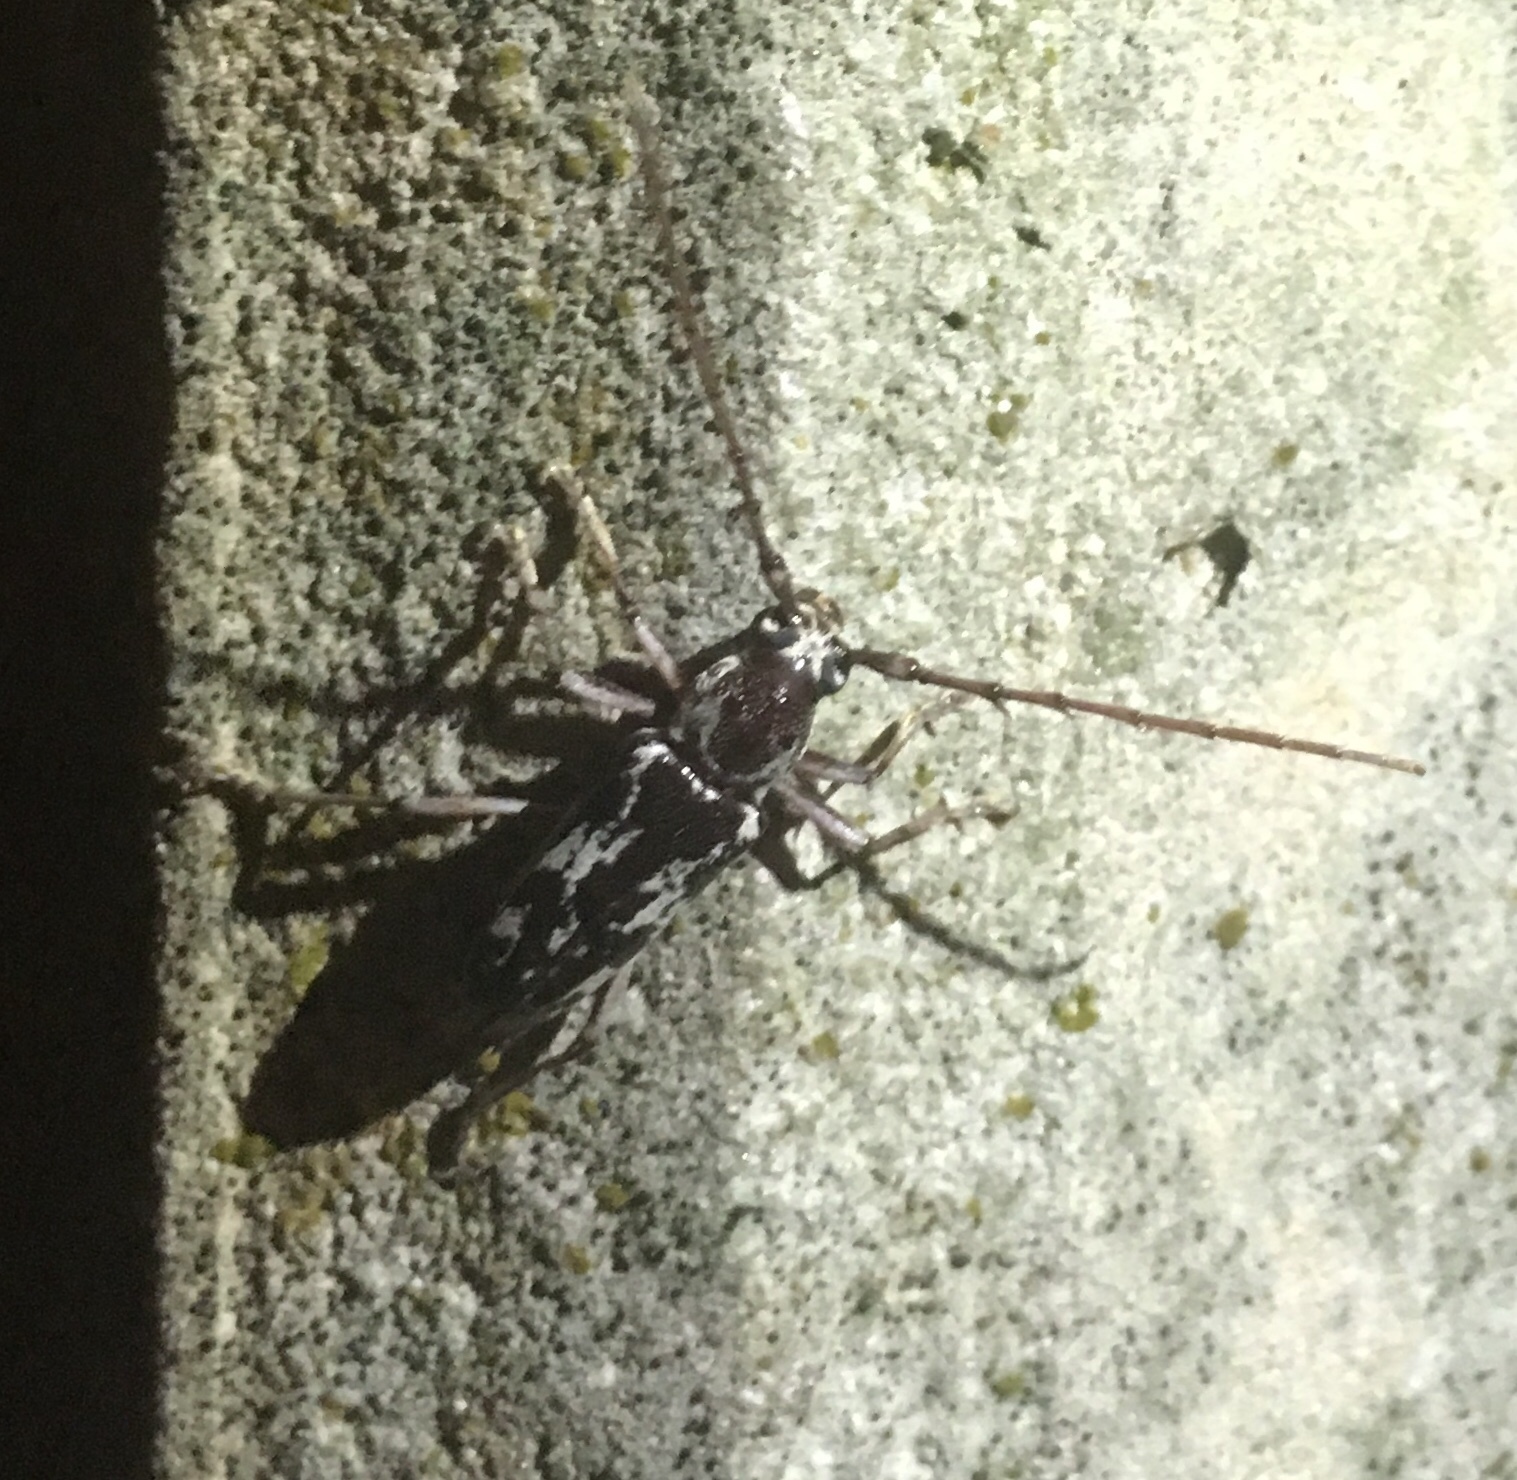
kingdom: Animalia
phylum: Arthropoda
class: Insecta
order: Coleoptera
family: Cerambycidae
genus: Elaphidion
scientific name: Elaphidion irroratum
